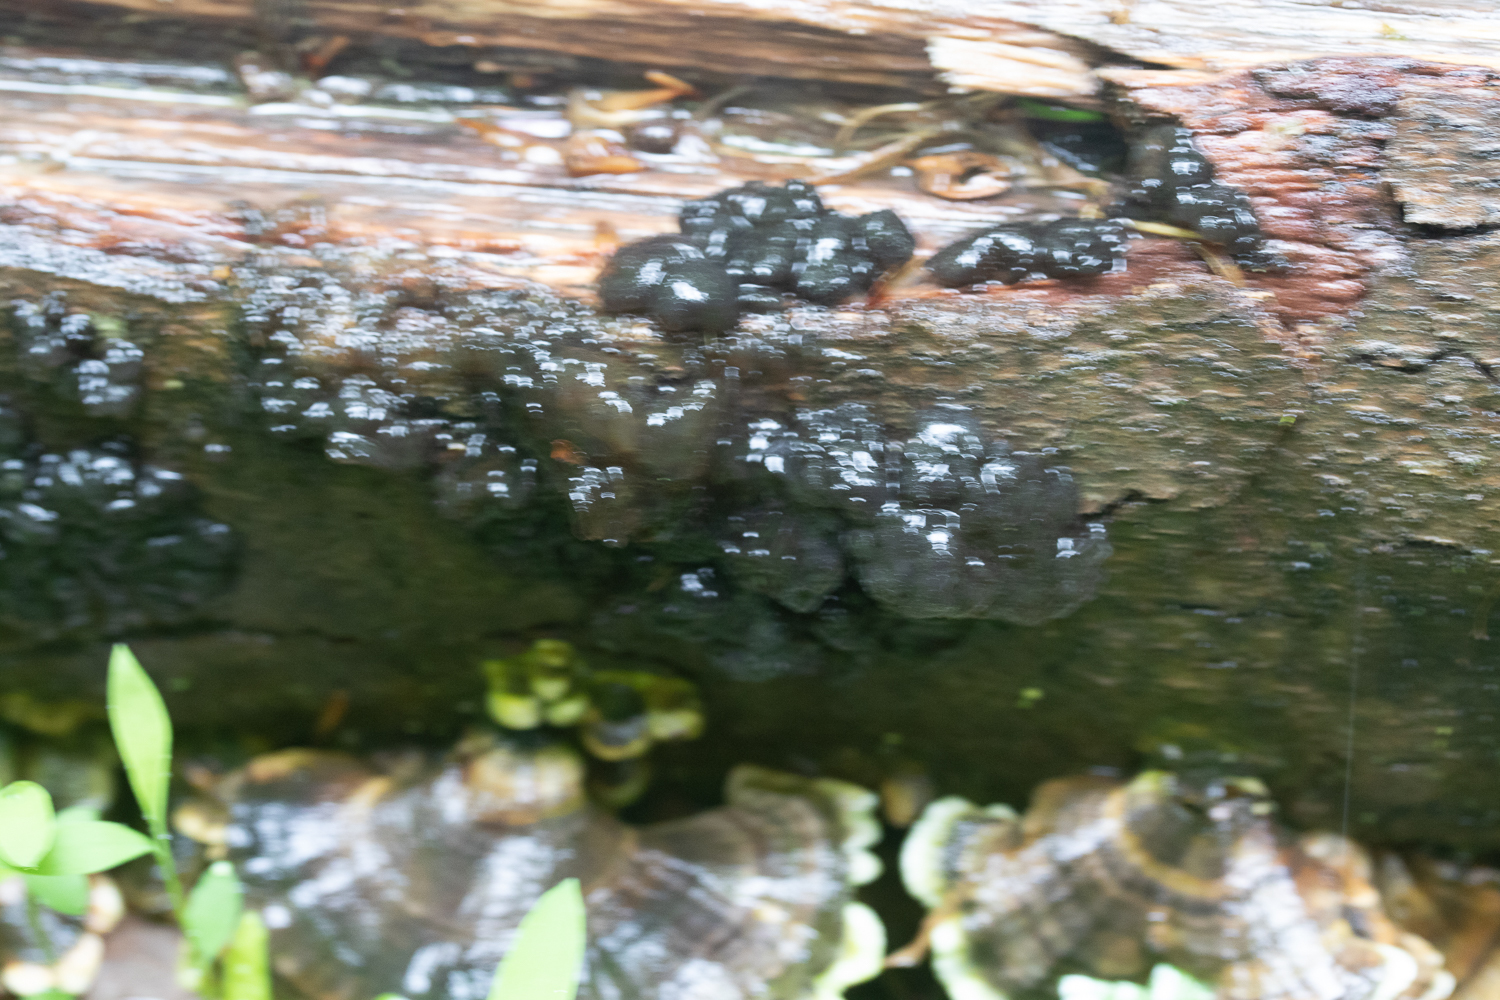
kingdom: Fungi
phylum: Basidiomycota
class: Agaricomycetes
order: Auriculariales
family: Auriculariaceae
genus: Exidia
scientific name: Exidia glandulosa
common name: Witches' butter
